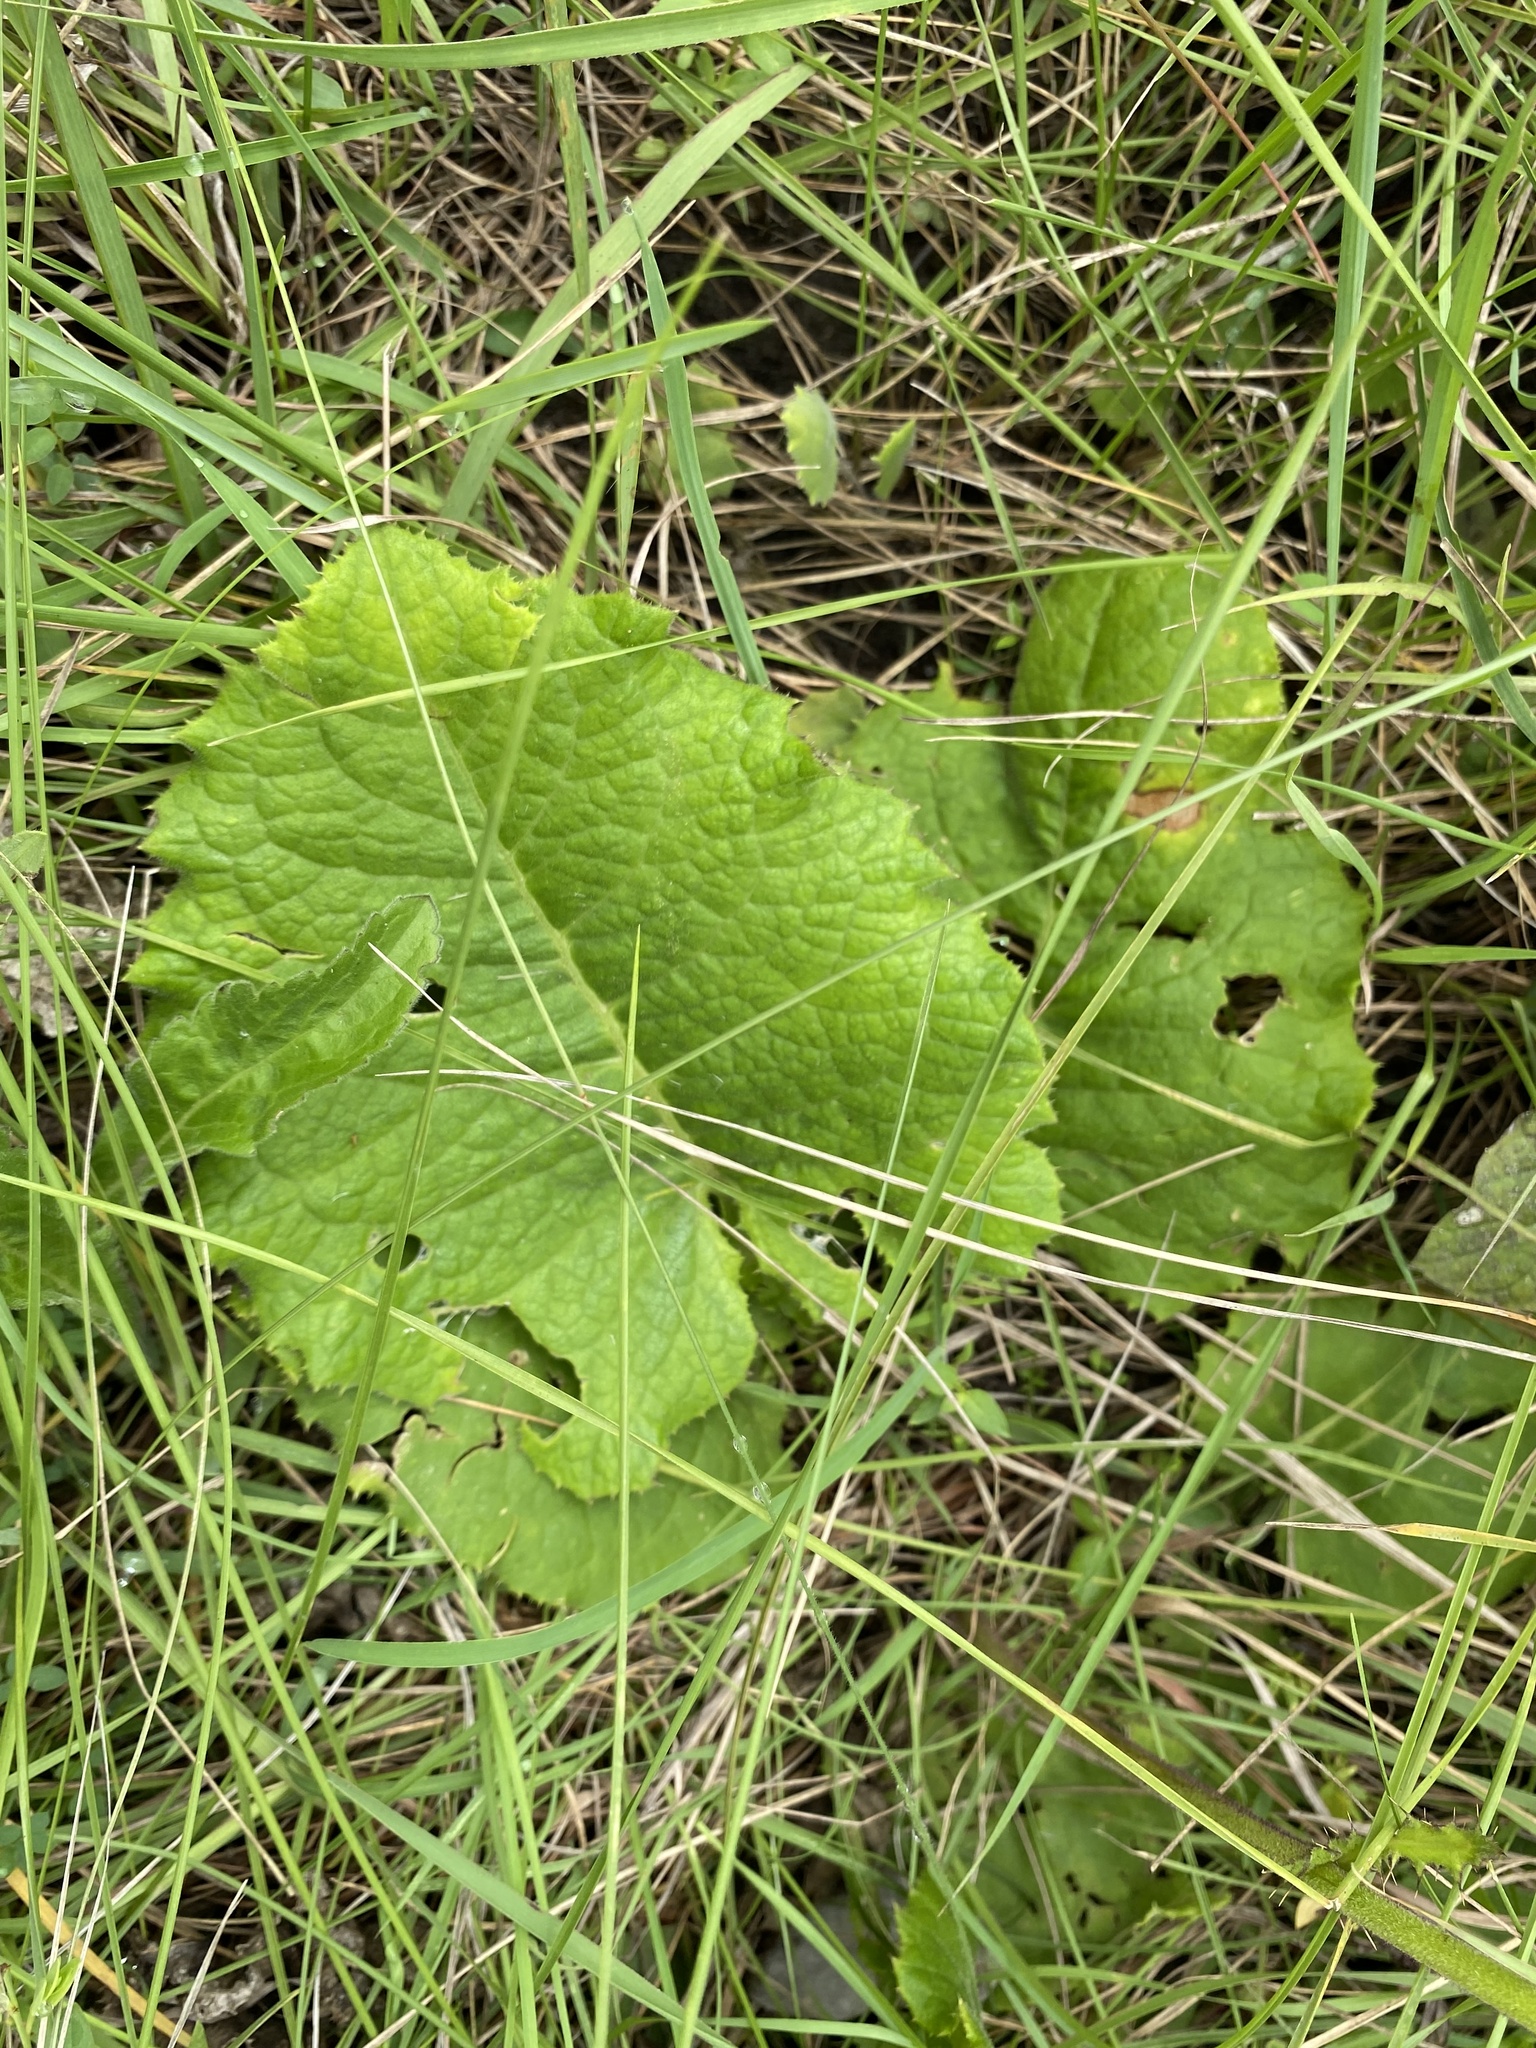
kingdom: Plantae
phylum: Tracheophyta
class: Magnoliopsida
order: Asterales
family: Asteraceae
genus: Berkheya
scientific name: Berkheya speciosa
